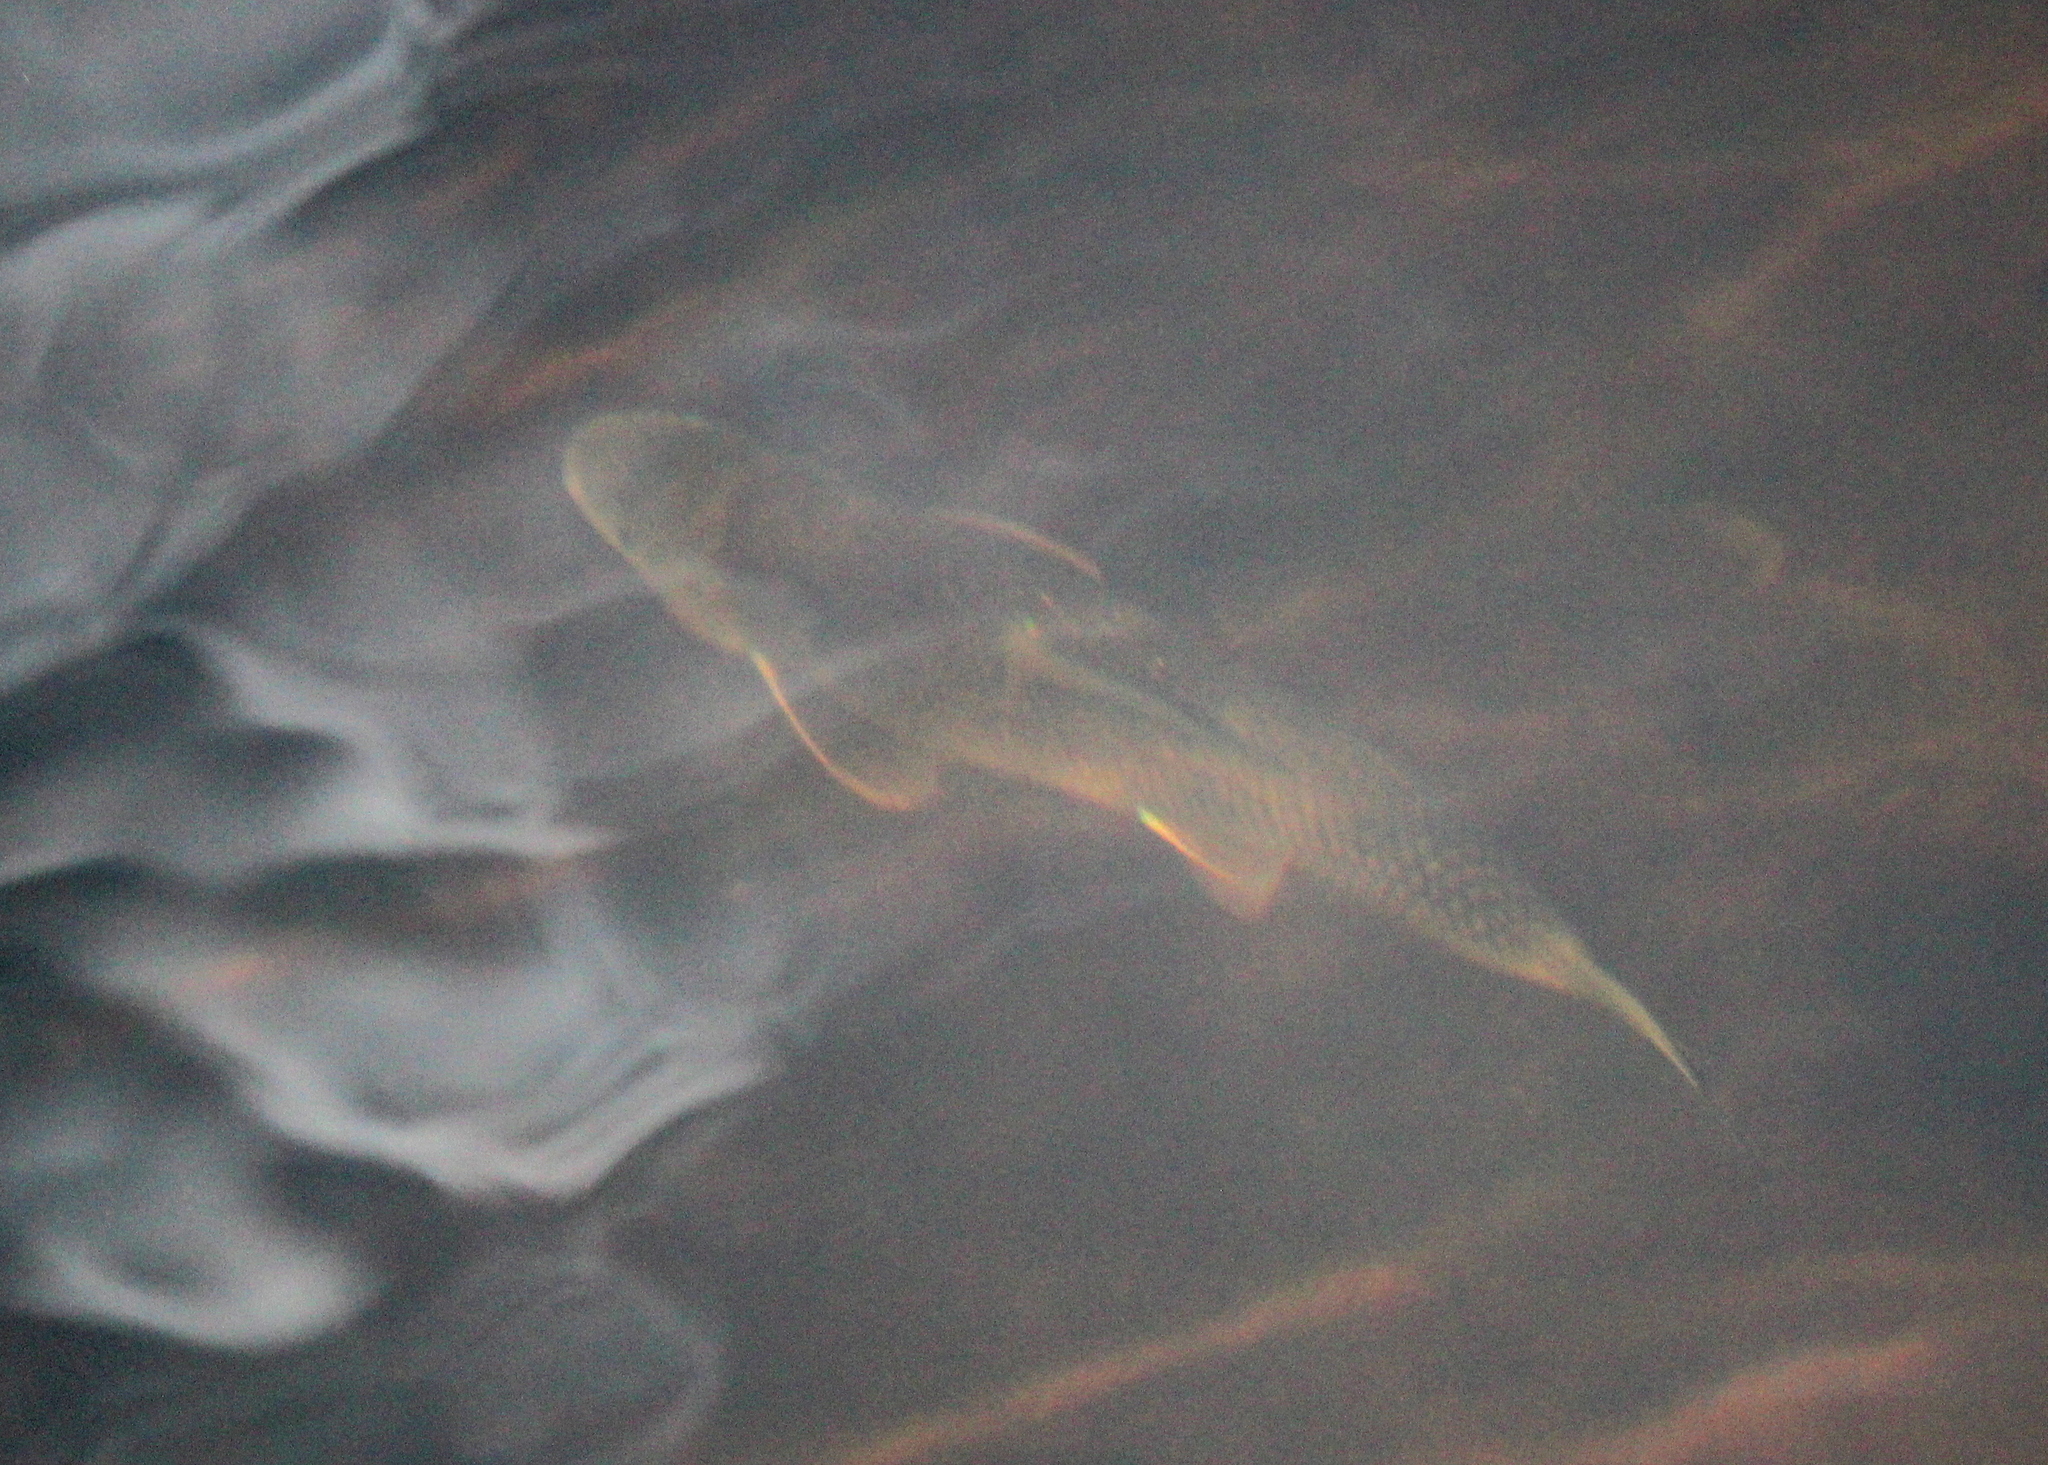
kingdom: Animalia
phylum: Chordata
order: Cypriniformes
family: Catostomidae
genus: Catostomus
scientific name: Catostomus commersonii
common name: White sucker
